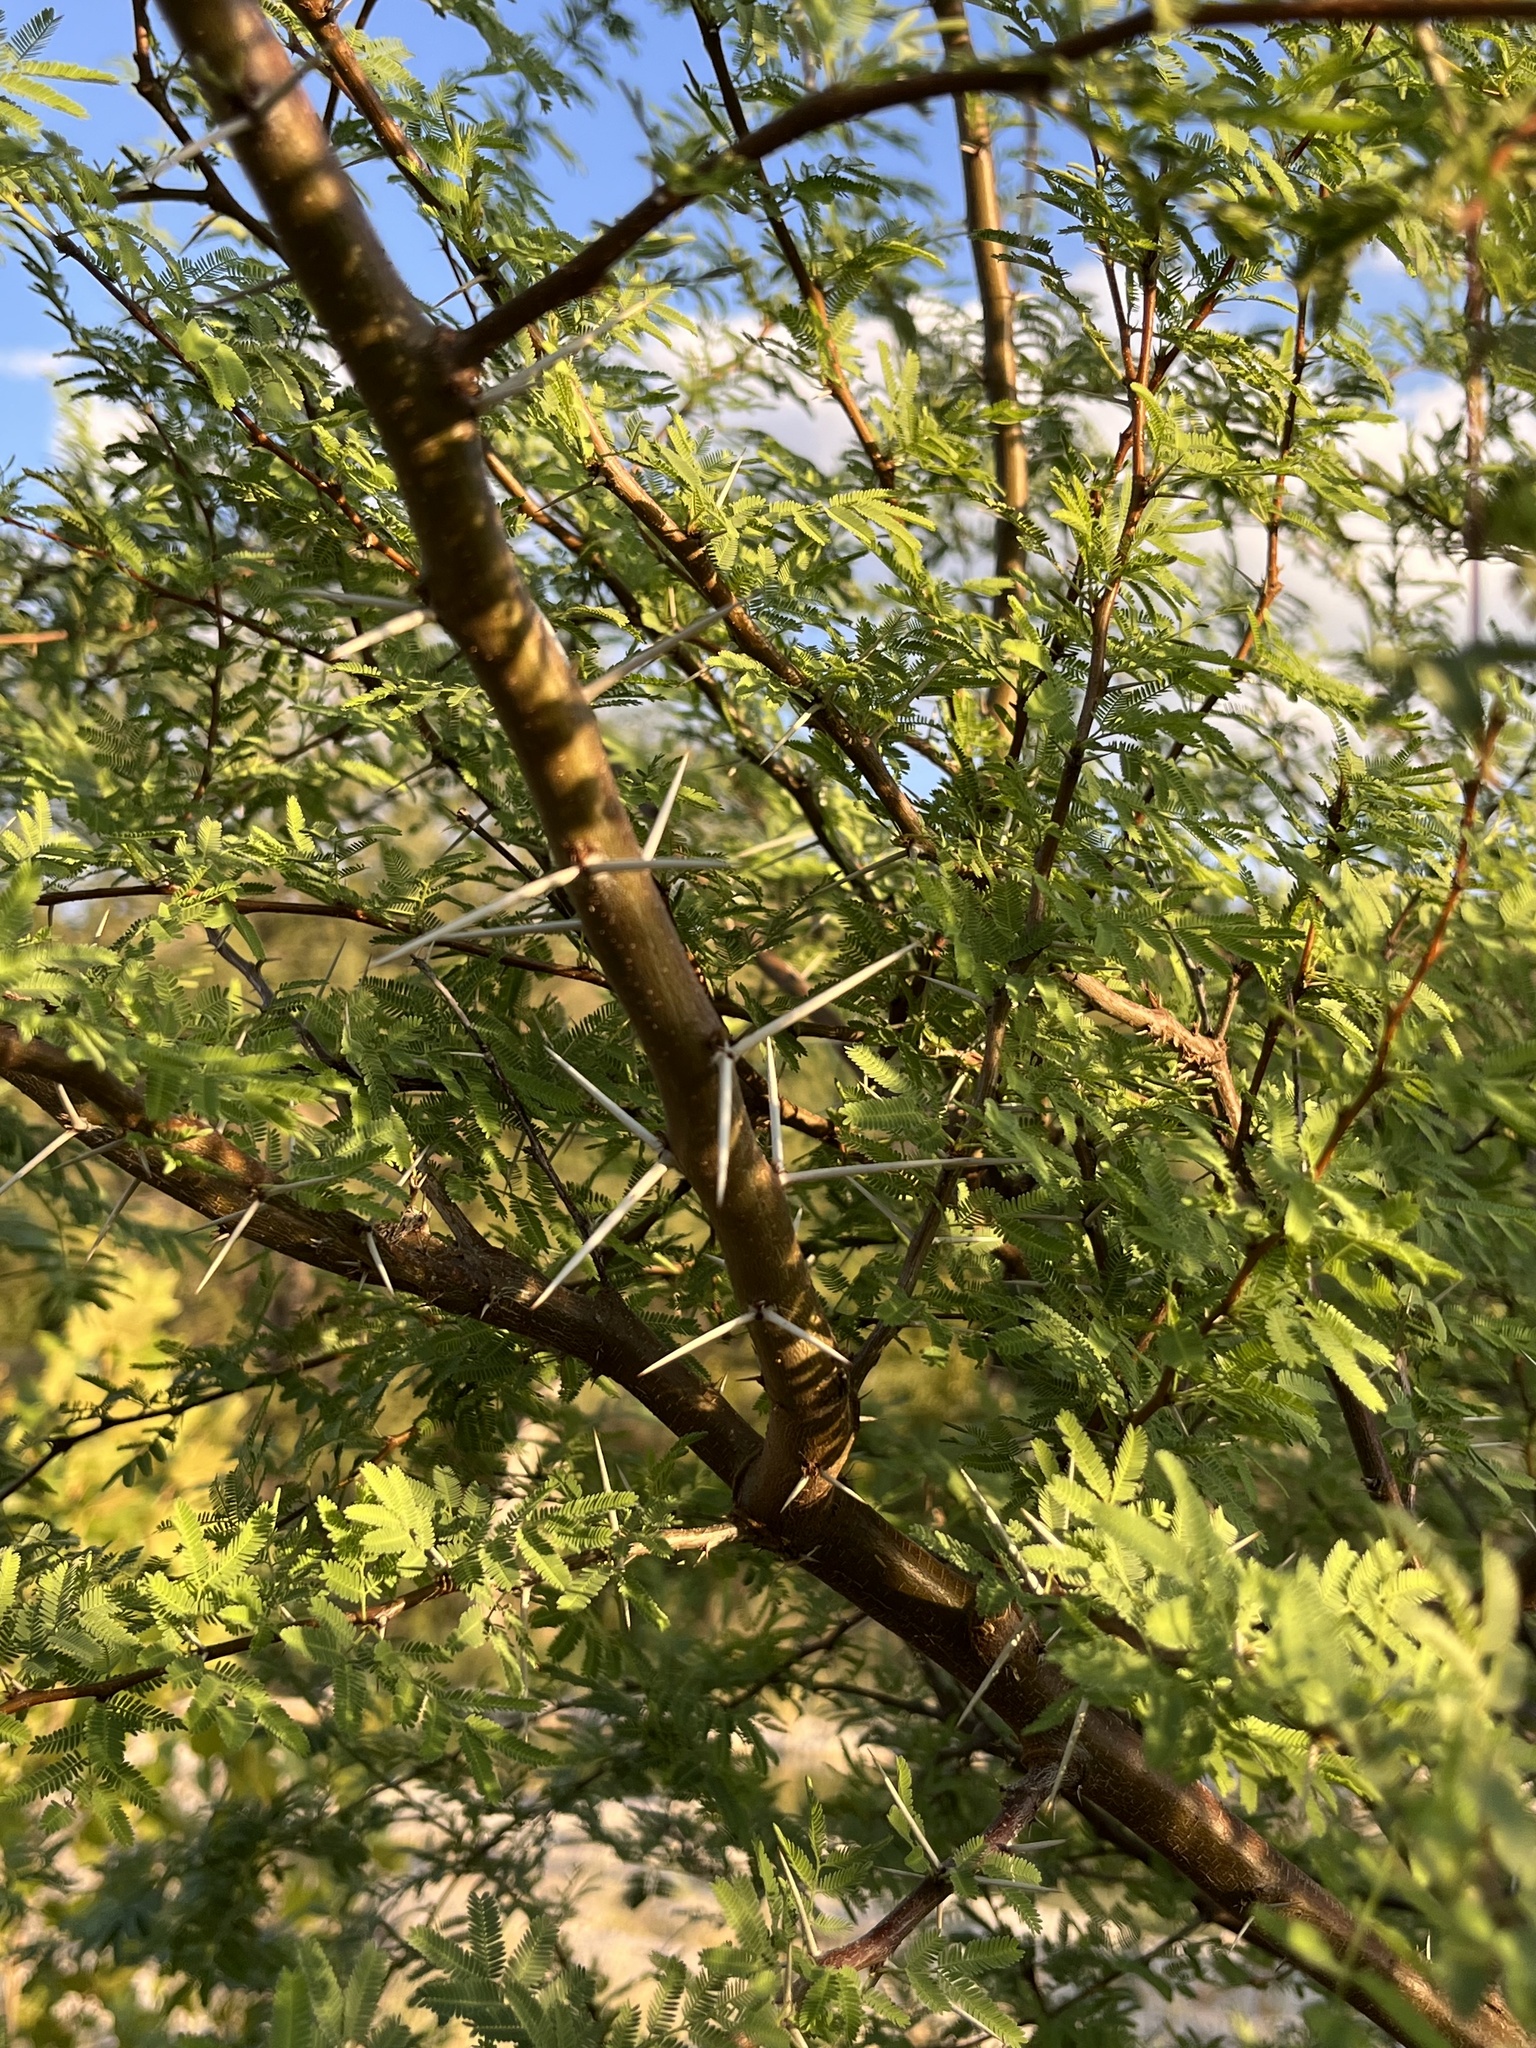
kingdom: Plantae
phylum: Tracheophyta
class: Magnoliopsida
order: Fabales
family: Fabaceae
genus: Vachellia
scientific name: Vachellia farnesiana
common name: Sweet acacia
